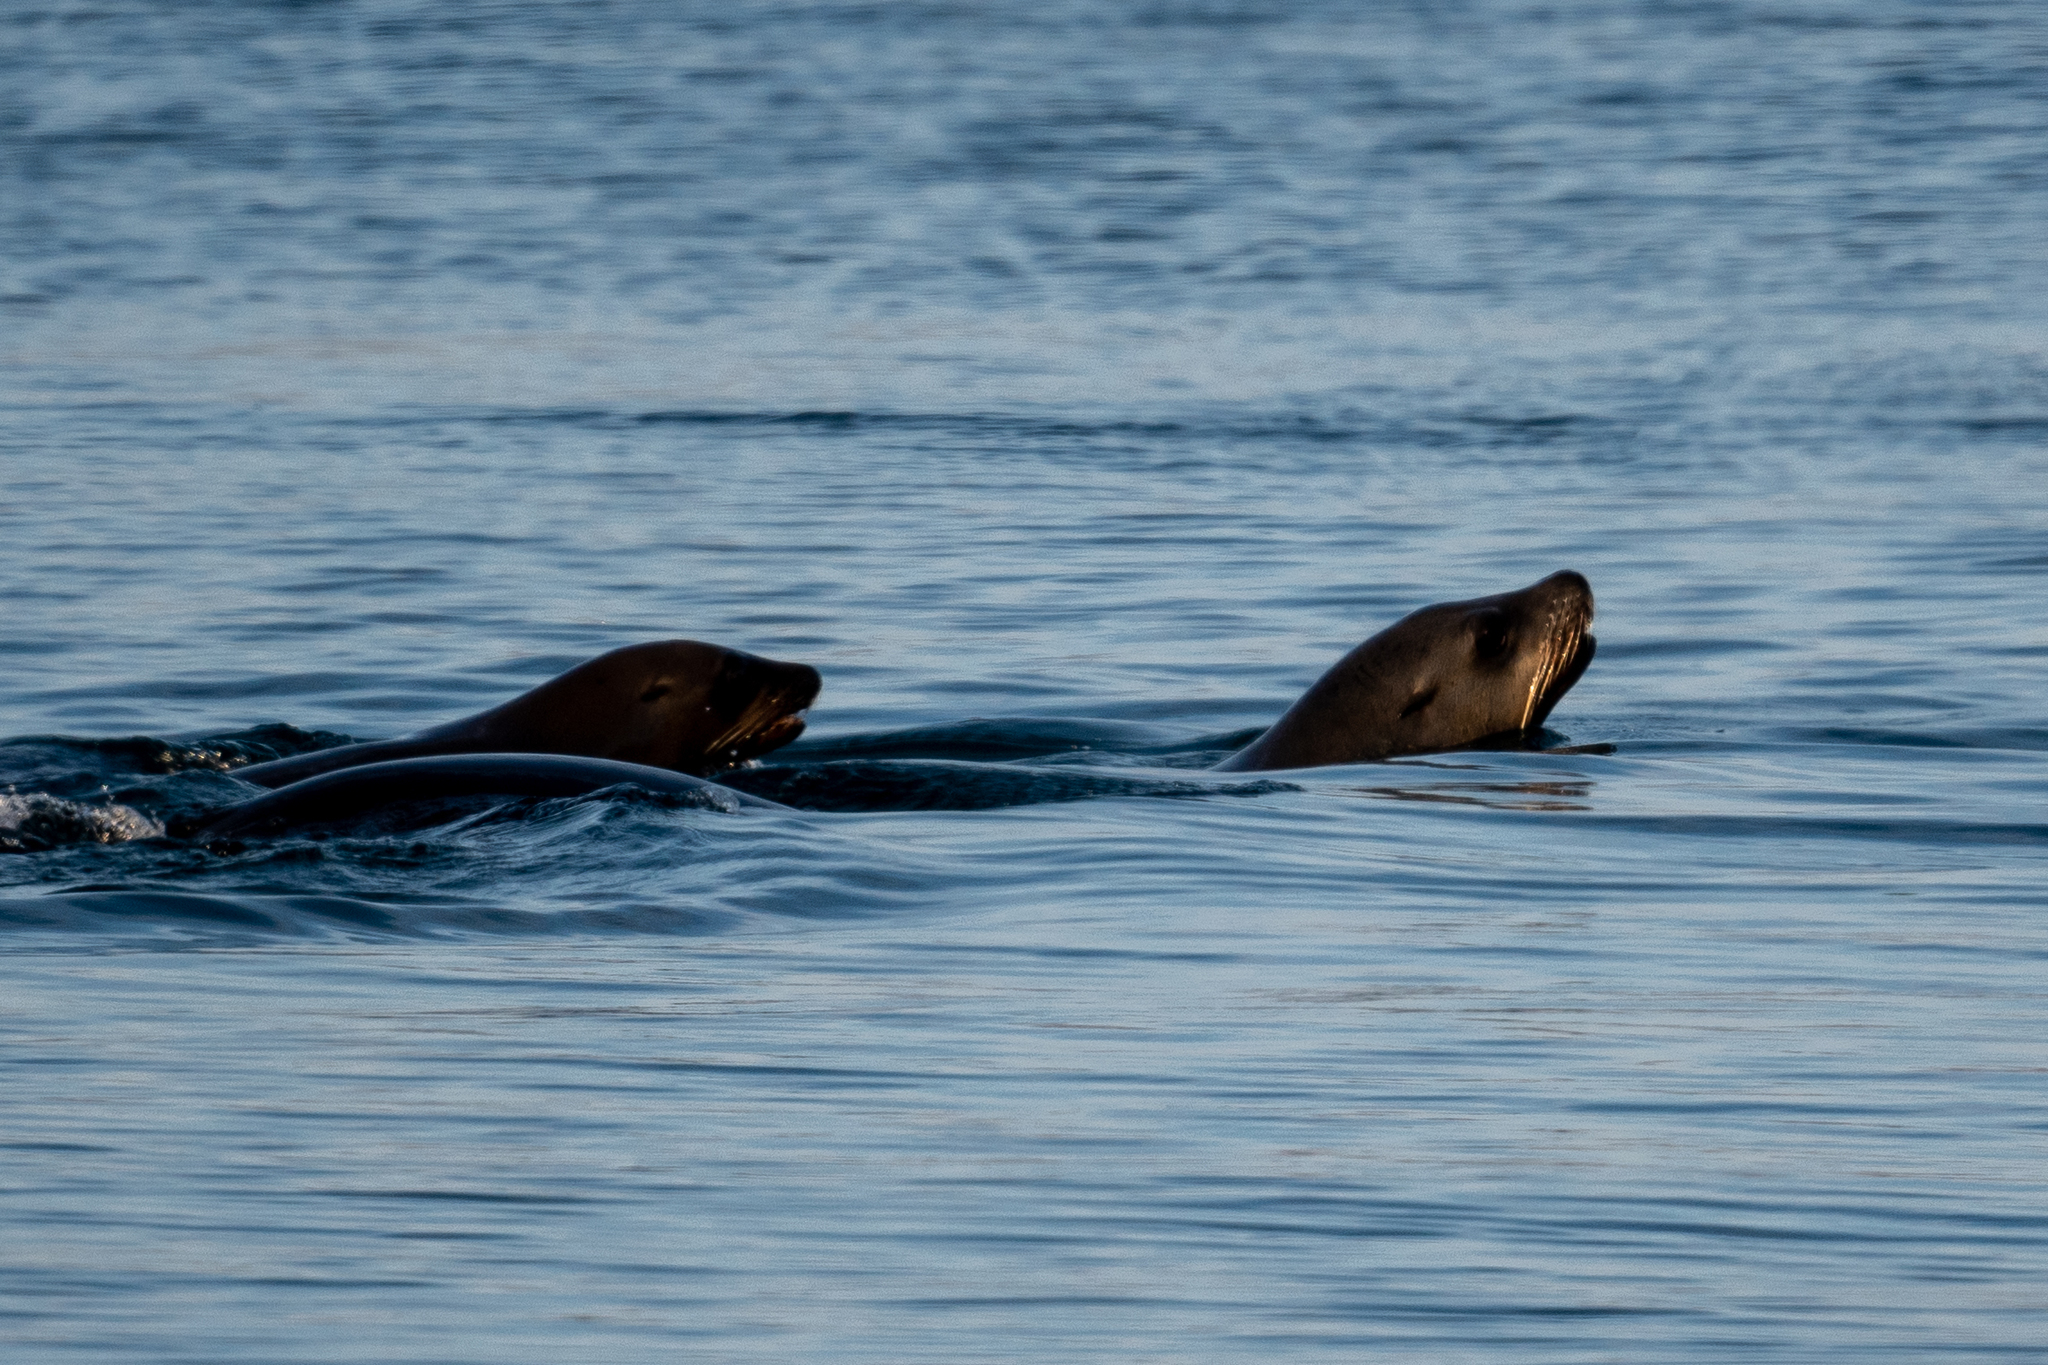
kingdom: Animalia
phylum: Chordata
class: Mammalia
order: Carnivora
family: Otariidae
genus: Zalophus
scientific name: Zalophus californianus
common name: California sea lion
